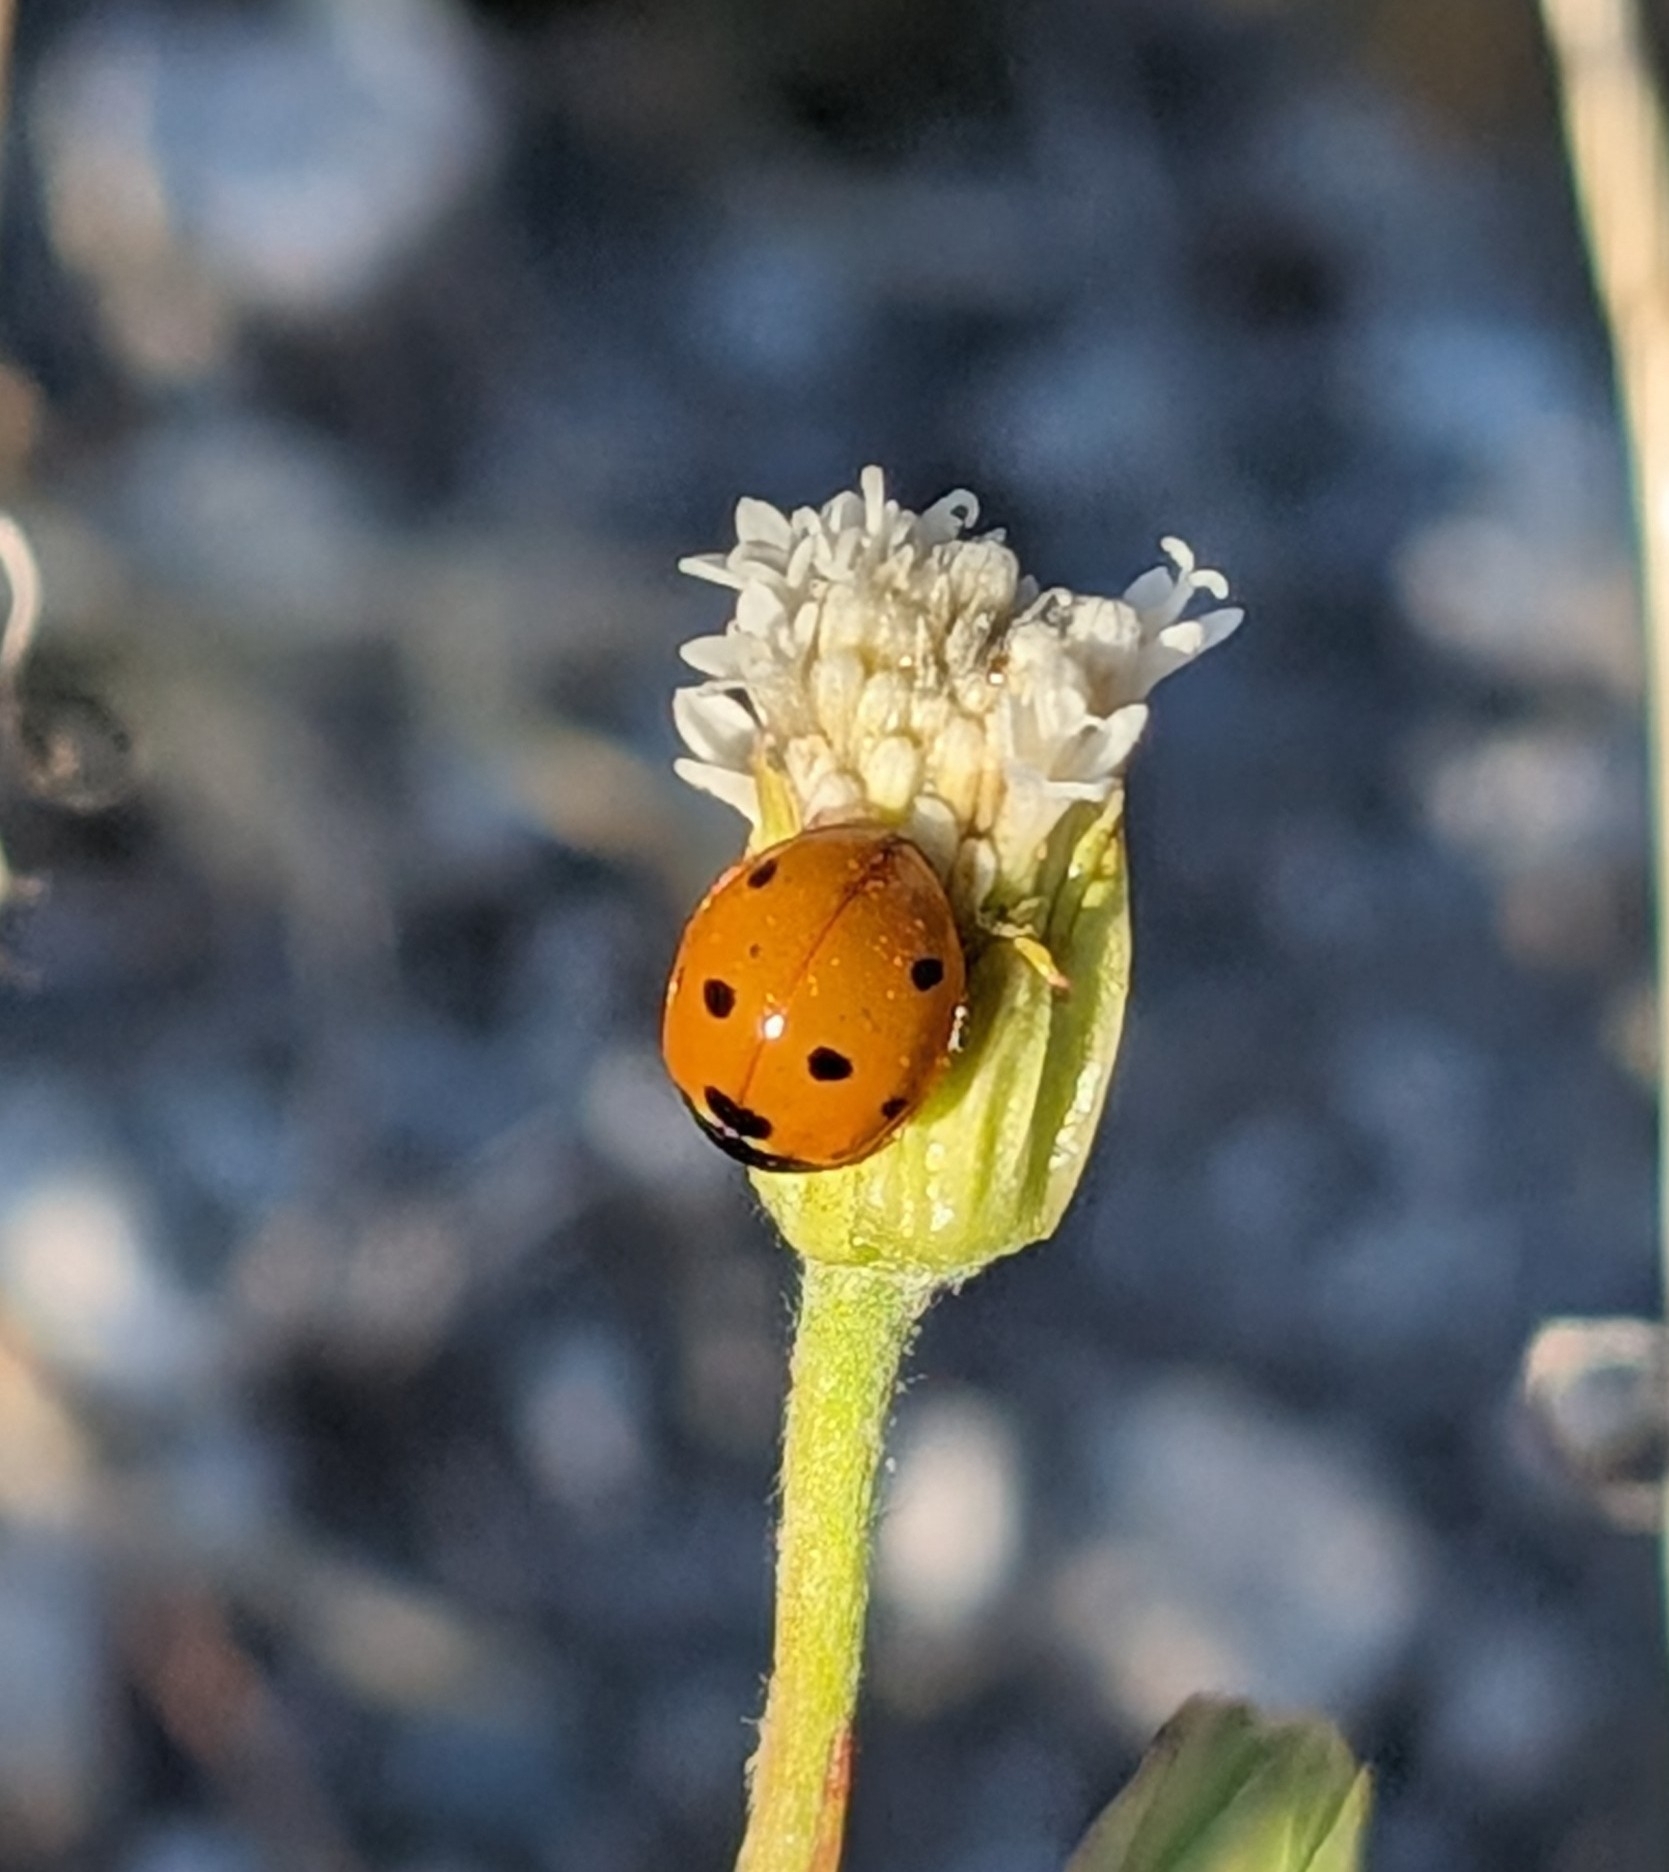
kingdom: Animalia
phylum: Arthropoda
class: Insecta
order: Coleoptera
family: Coccinellidae
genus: Coccinella
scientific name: Coccinella septempunctata
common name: Sevenspotted lady beetle
